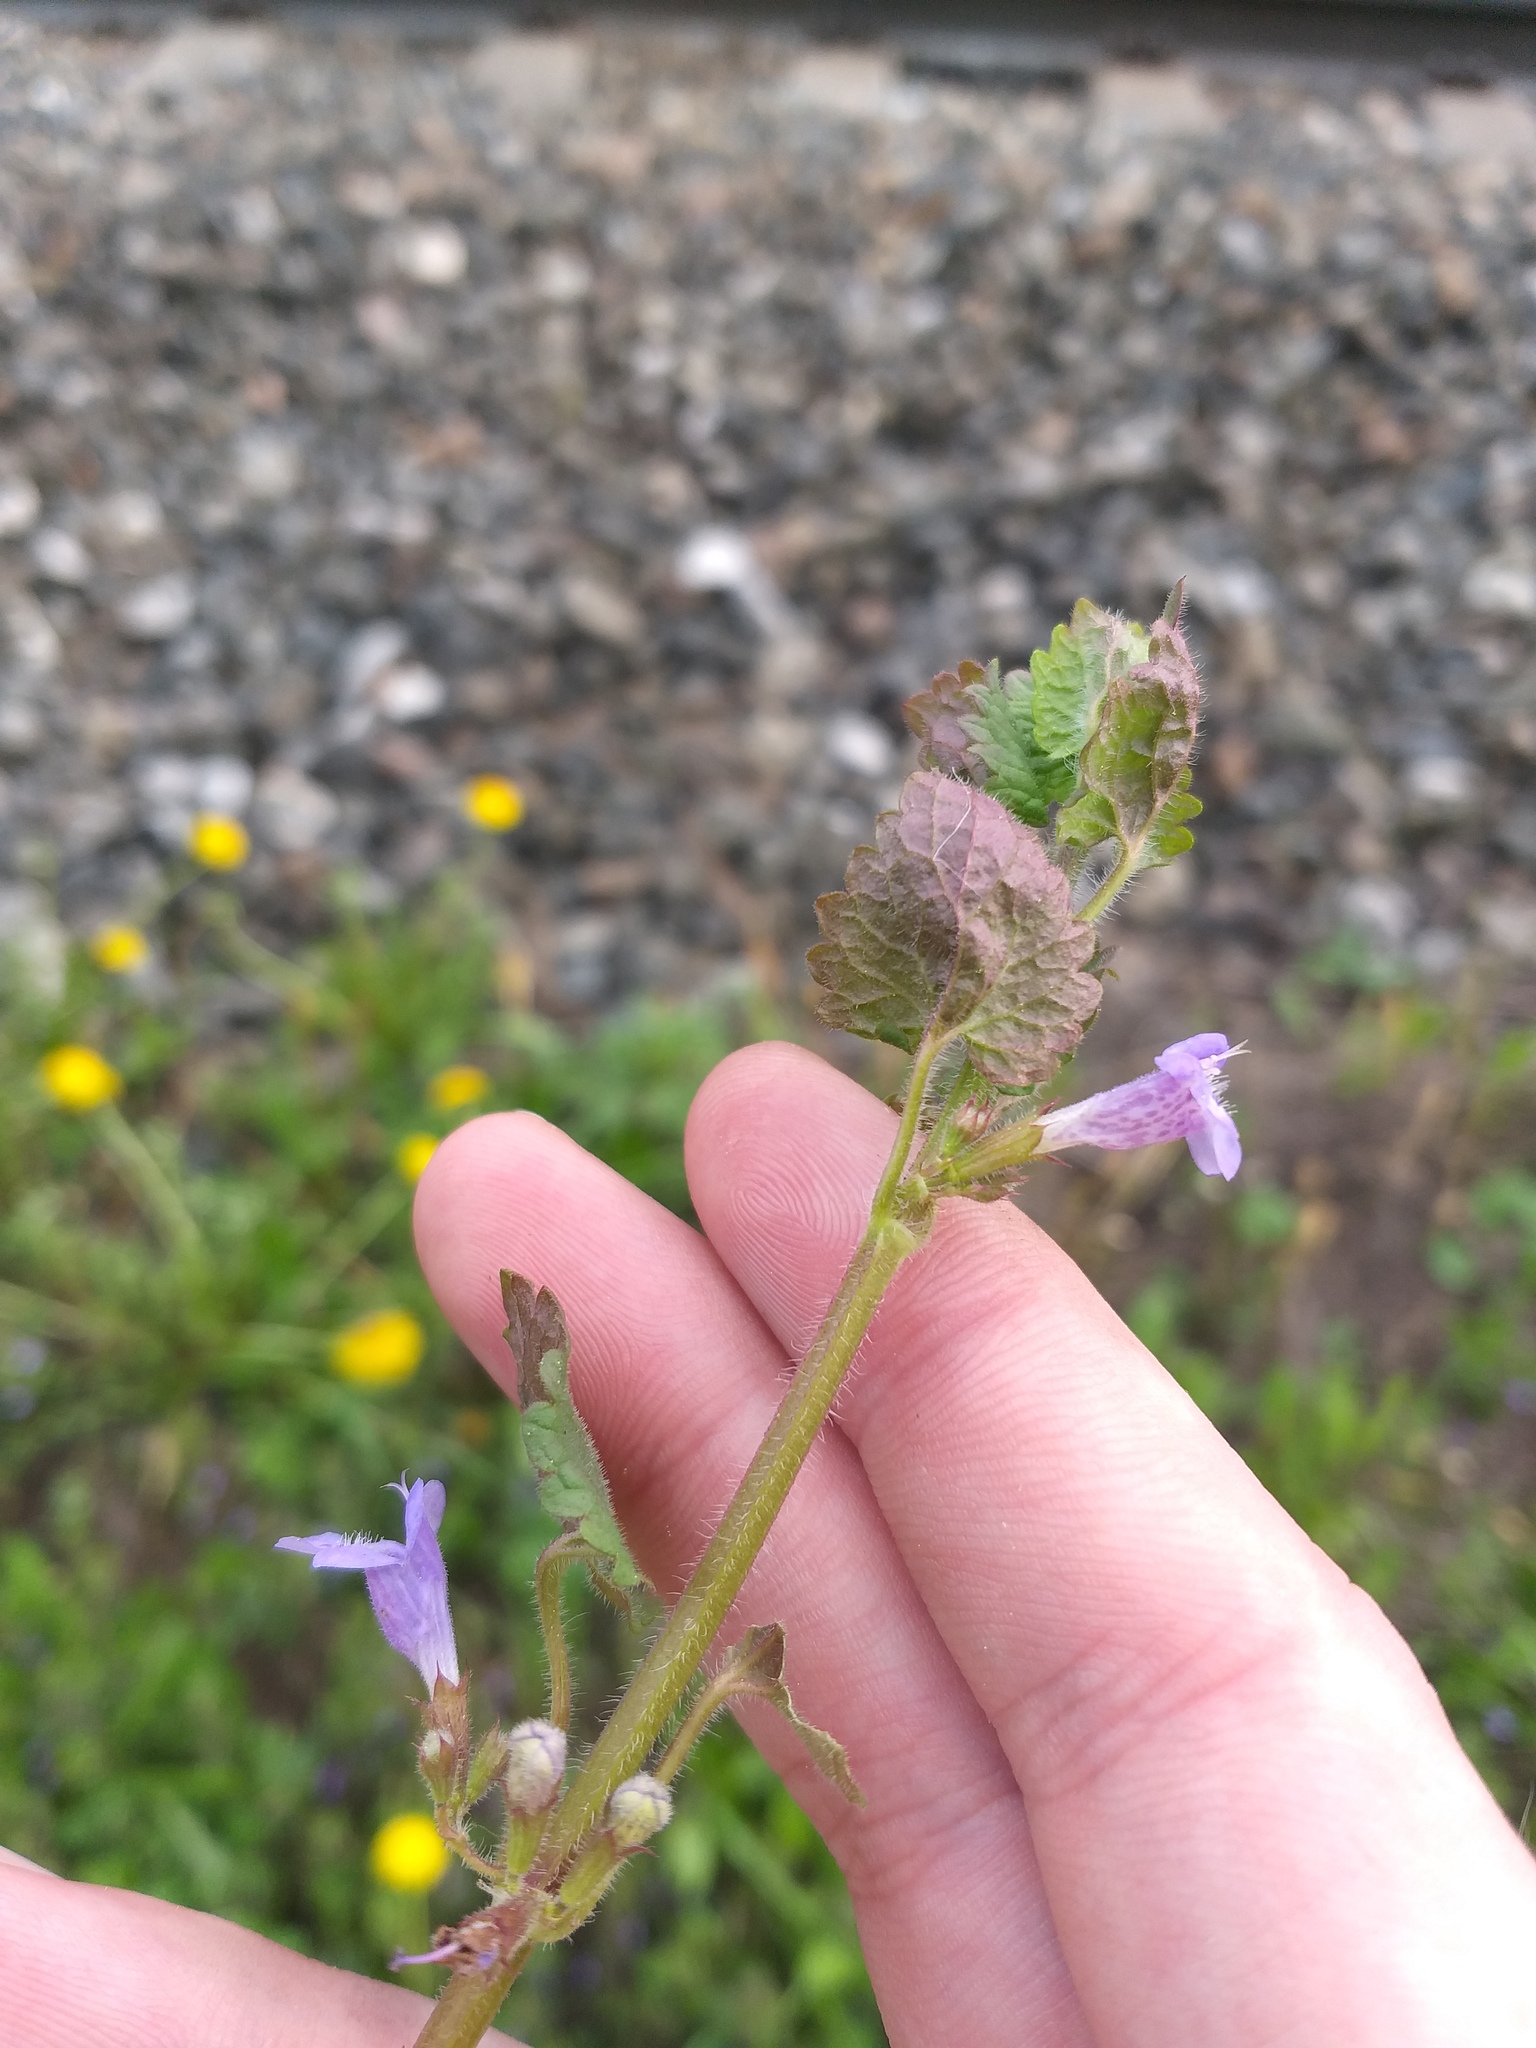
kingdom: Plantae
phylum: Tracheophyta
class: Magnoliopsida
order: Lamiales
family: Lamiaceae
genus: Glechoma
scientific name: Glechoma hederacea
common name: Ground ivy
